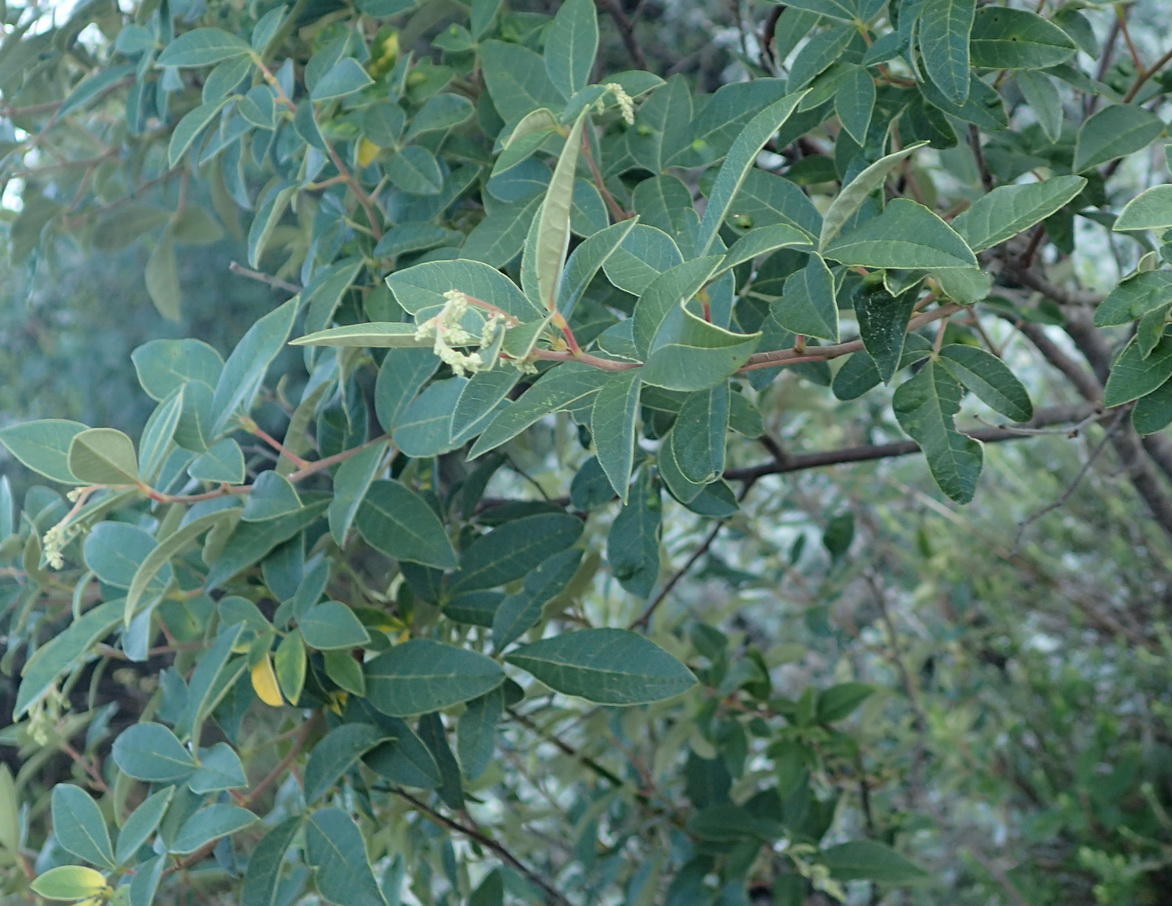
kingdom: Plantae
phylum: Tracheophyta
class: Magnoliopsida
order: Sapindales
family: Anacardiaceae
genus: Searsia
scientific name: Searsia tomentosa
